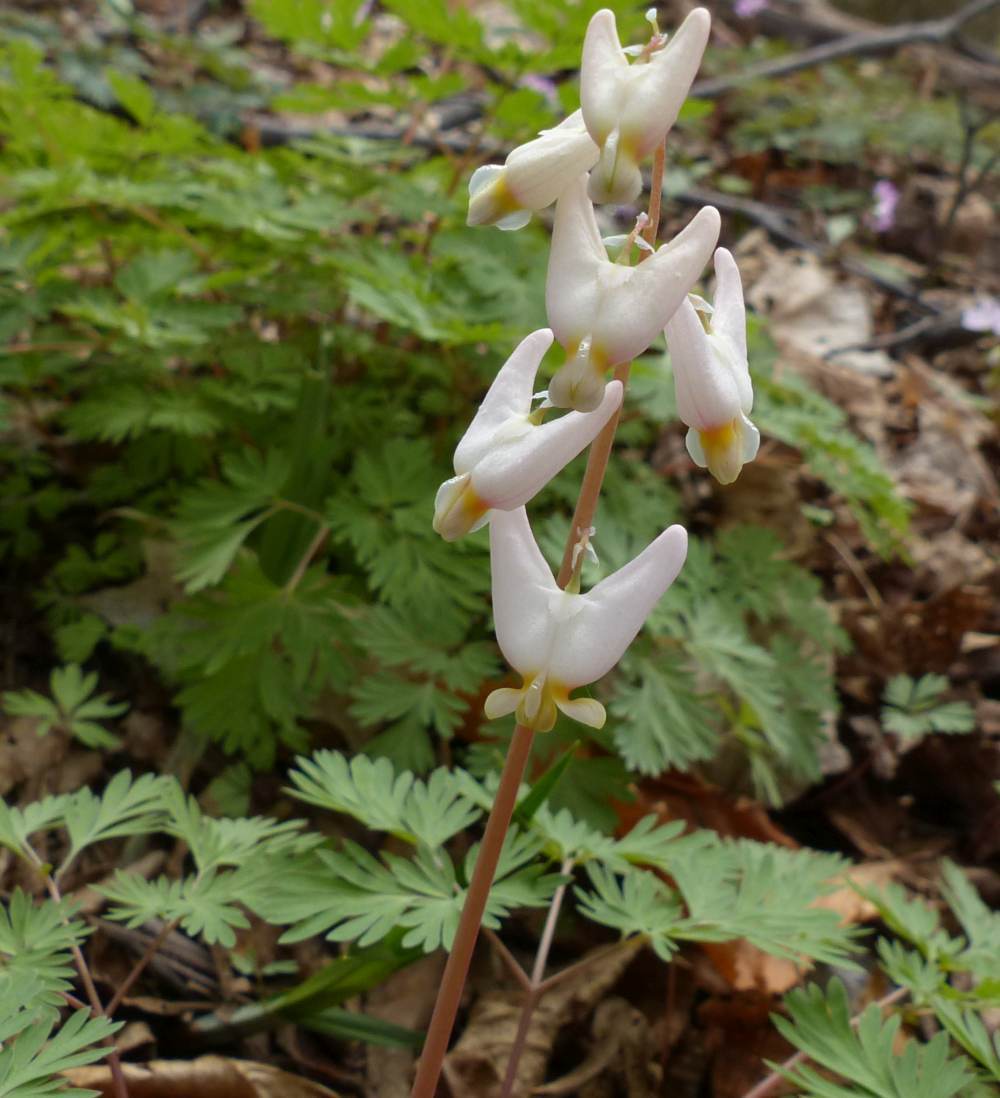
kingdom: Plantae
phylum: Tracheophyta
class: Magnoliopsida
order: Ranunculales
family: Papaveraceae
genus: Dicentra
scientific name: Dicentra cucullaria
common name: Dutchman's breeches
